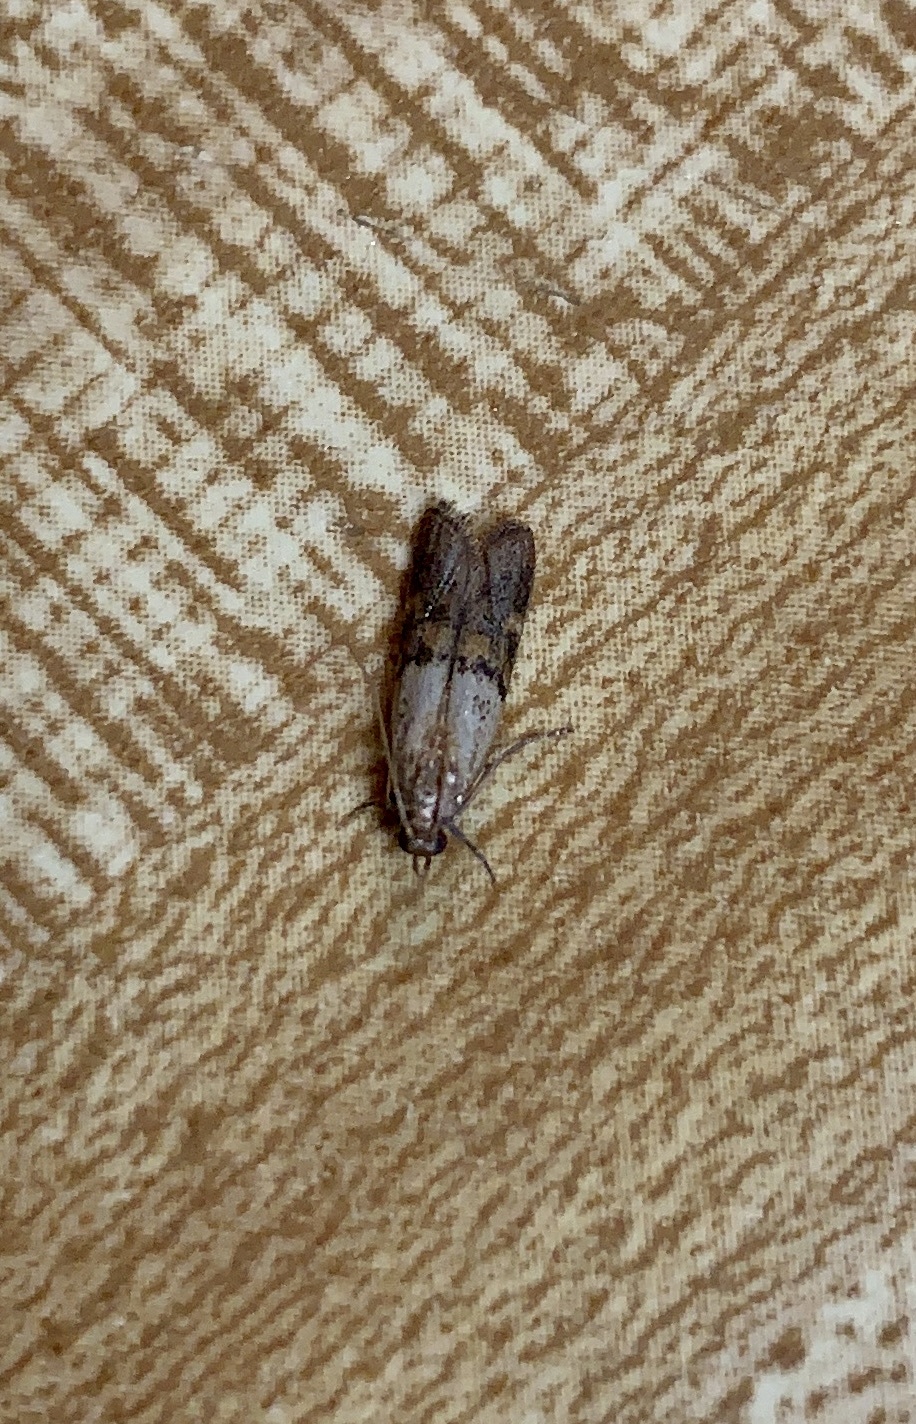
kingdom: Animalia
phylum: Arthropoda
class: Insecta
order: Lepidoptera
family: Pyralidae
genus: Plodia
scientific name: Plodia interpunctella
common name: Indian meal moth
